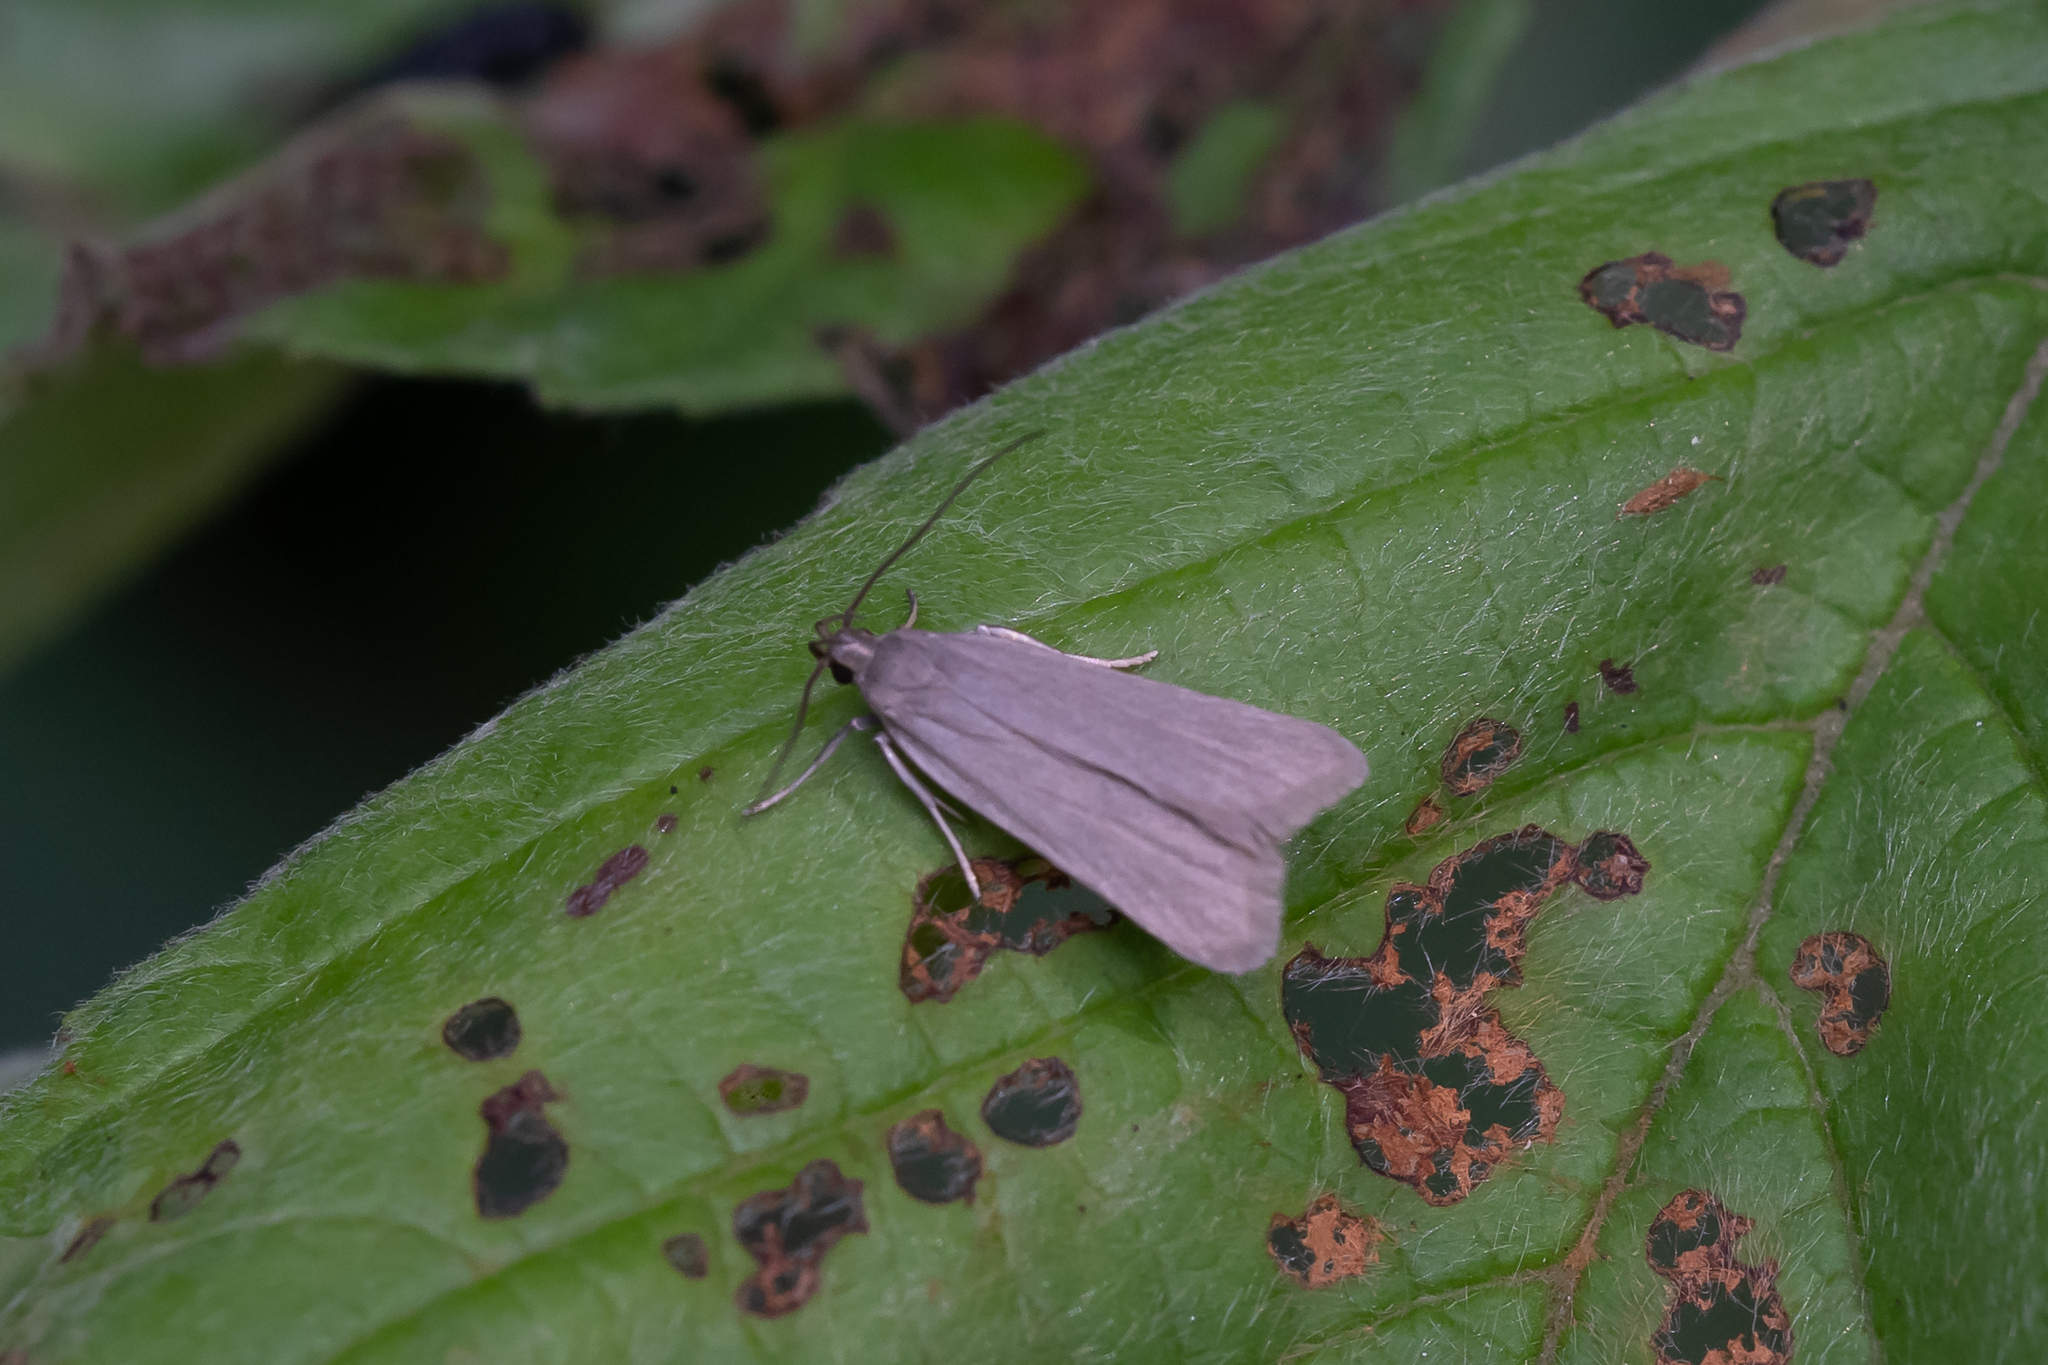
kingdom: Animalia
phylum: Arthropoda
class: Insecta
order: Lepidoptera
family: Gelechiidae
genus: Acompsia
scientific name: Acompsia cinerella
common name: Ash-coloured sober
